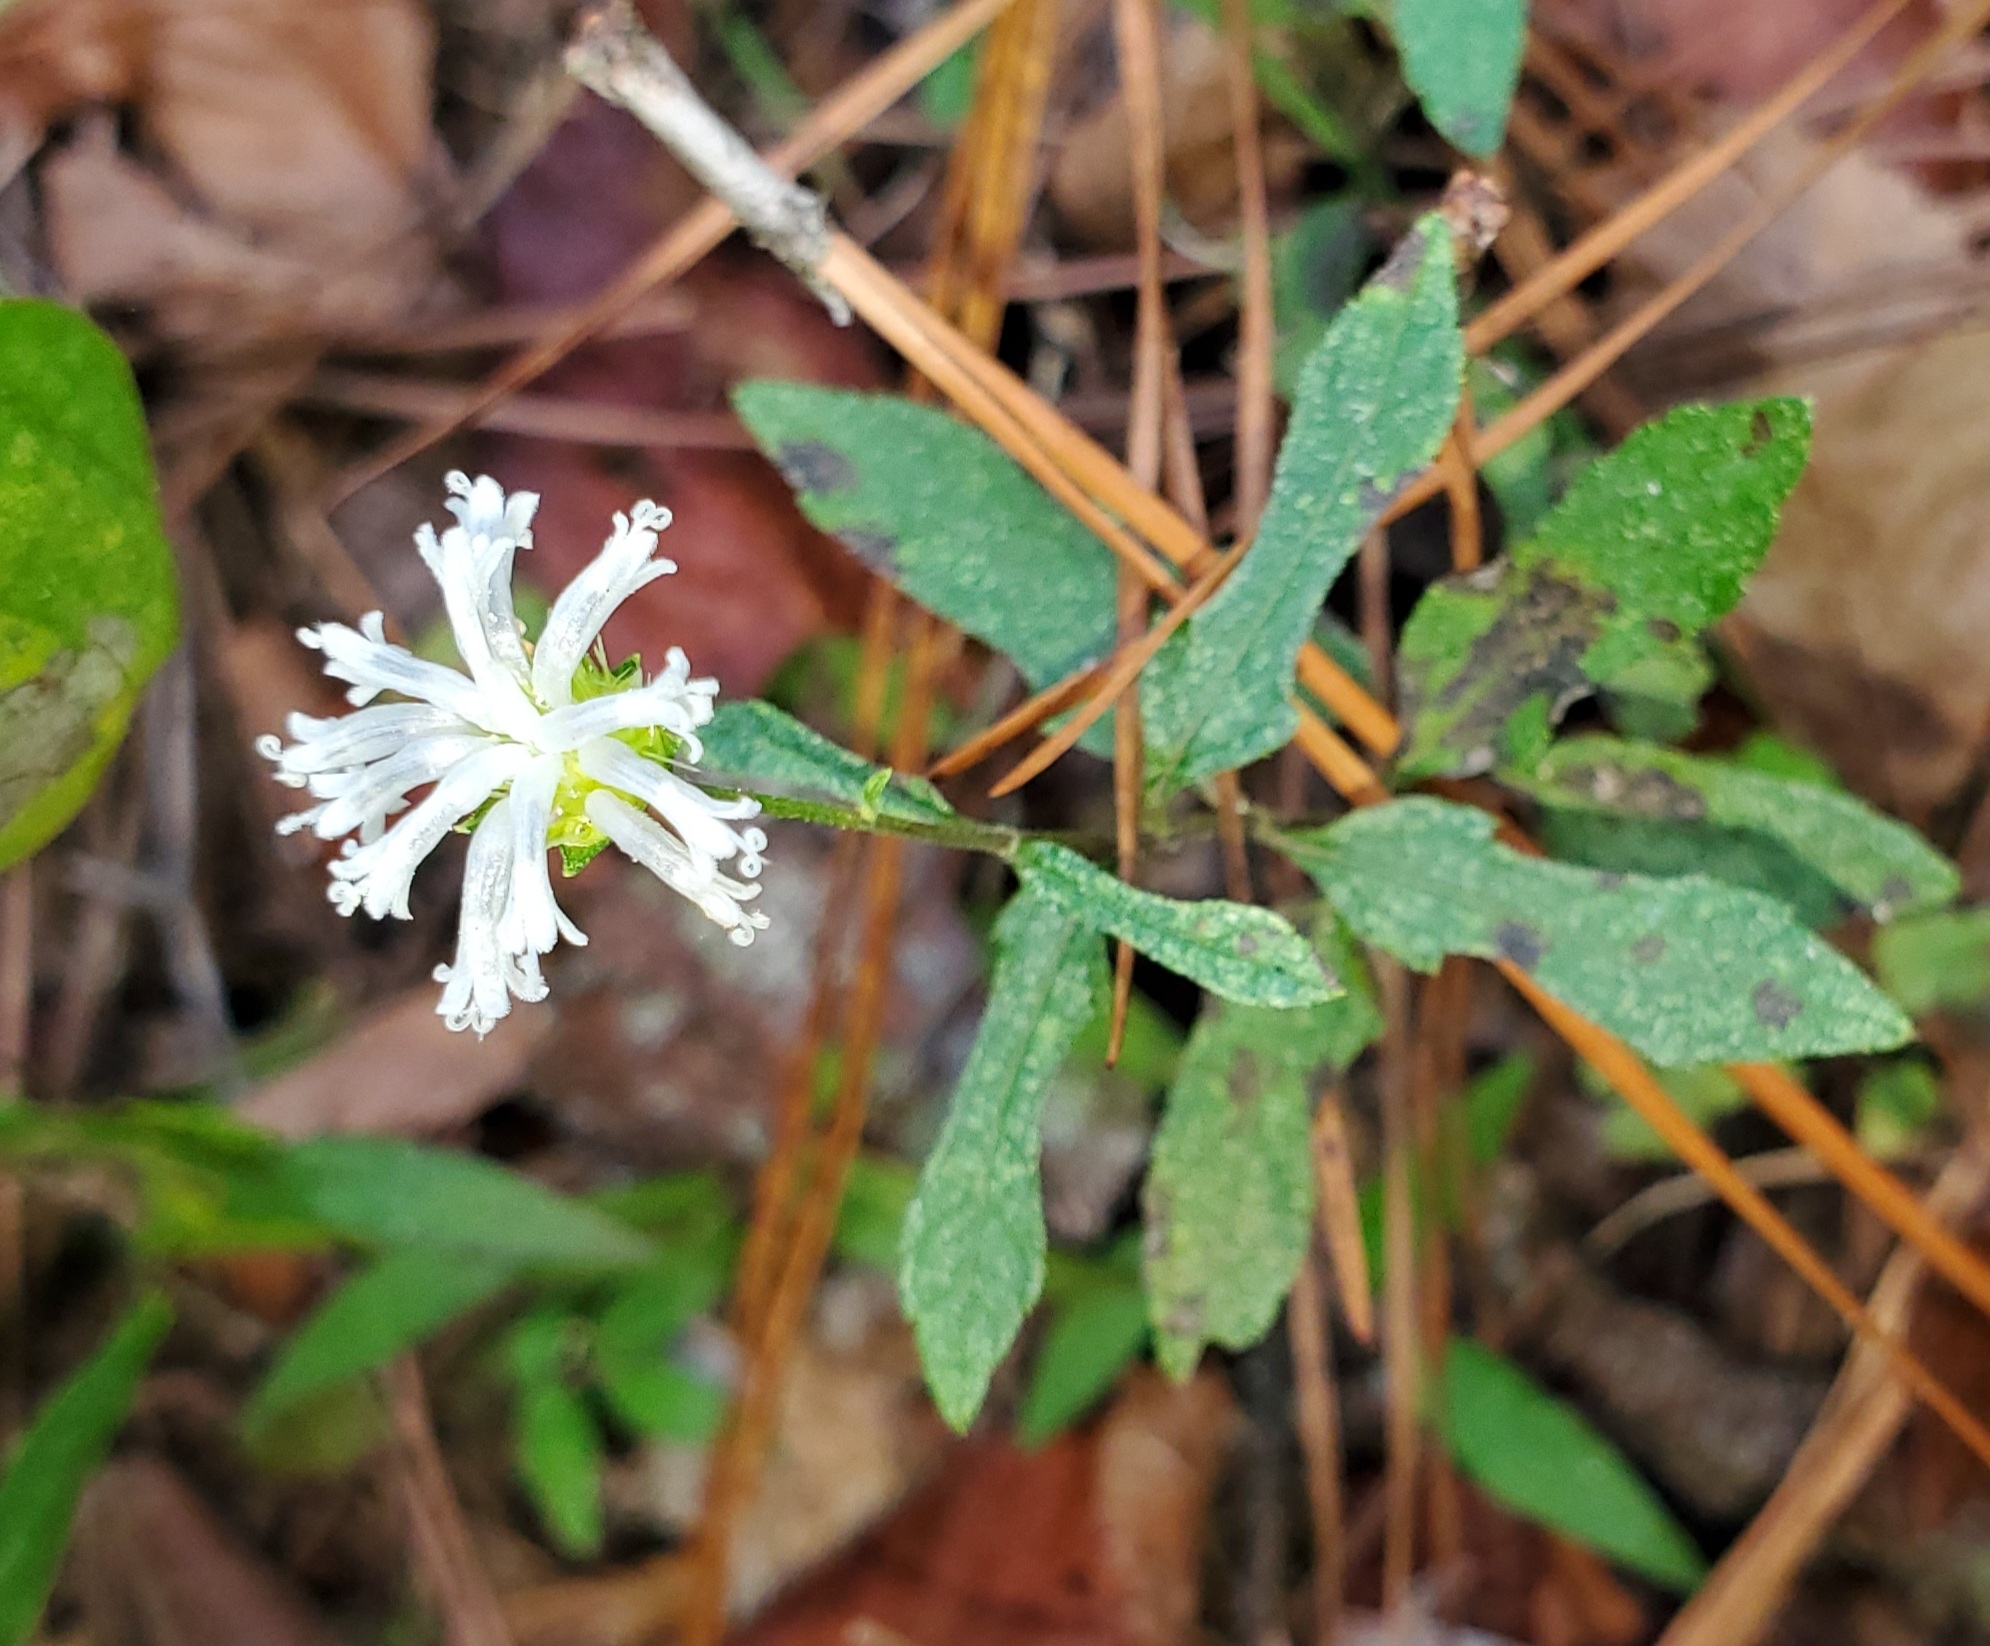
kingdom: Plantae
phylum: Tracheophyta
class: Magnoliopsida
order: Asterales
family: Asteraceae
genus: Melanthera
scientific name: Melanthera nivea
